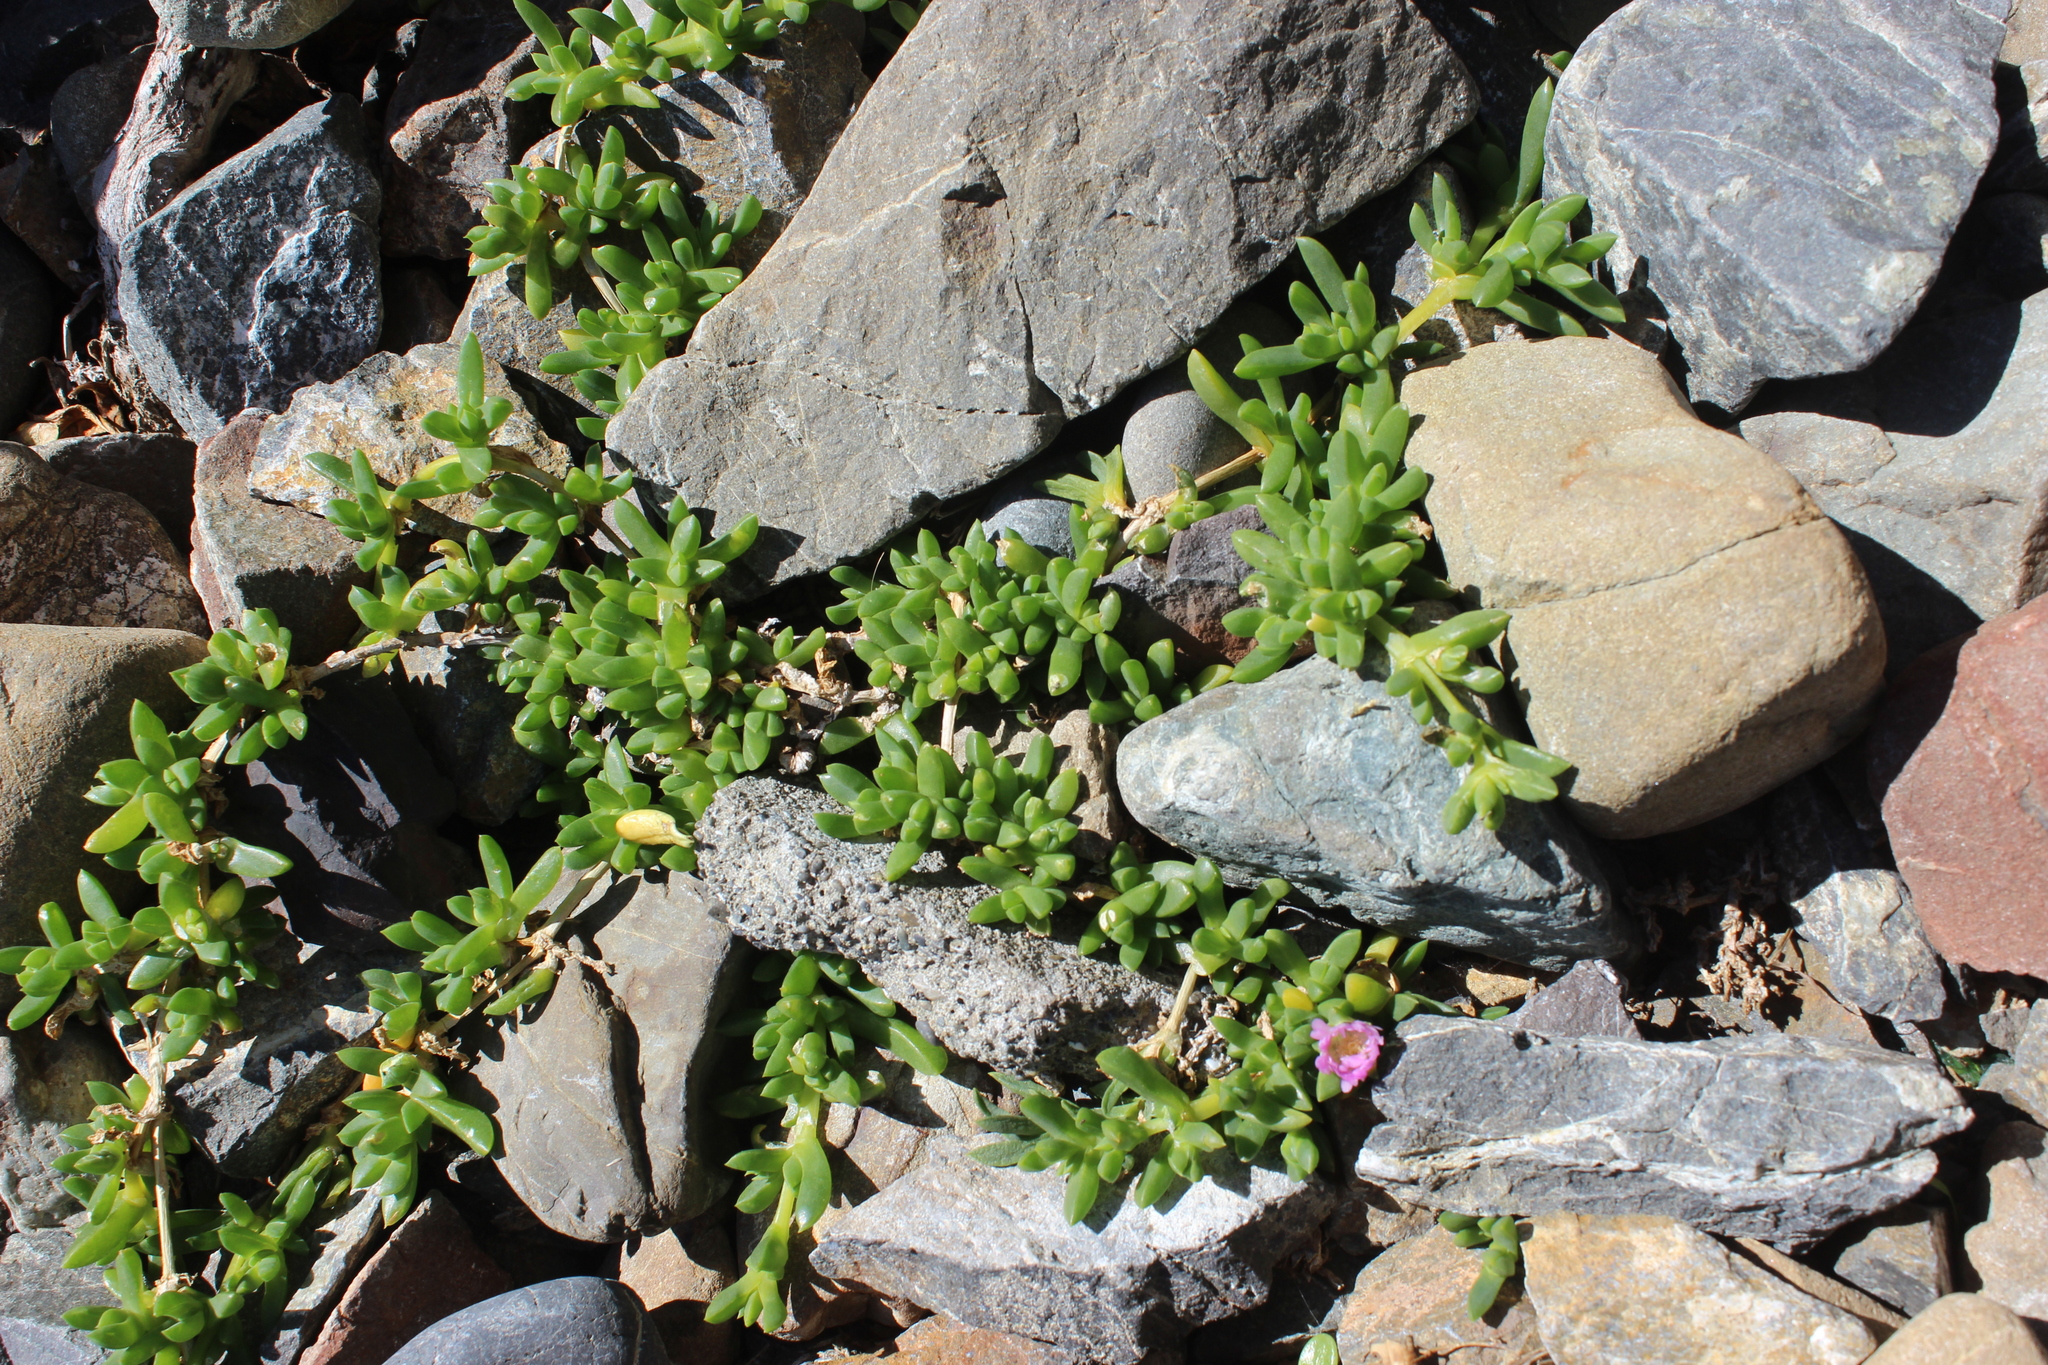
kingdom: Plantae
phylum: Tracheophyta
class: Magnoliopsida
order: Caryophyllales
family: Aizoaceae
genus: Disphyma
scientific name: Disphyma australe
